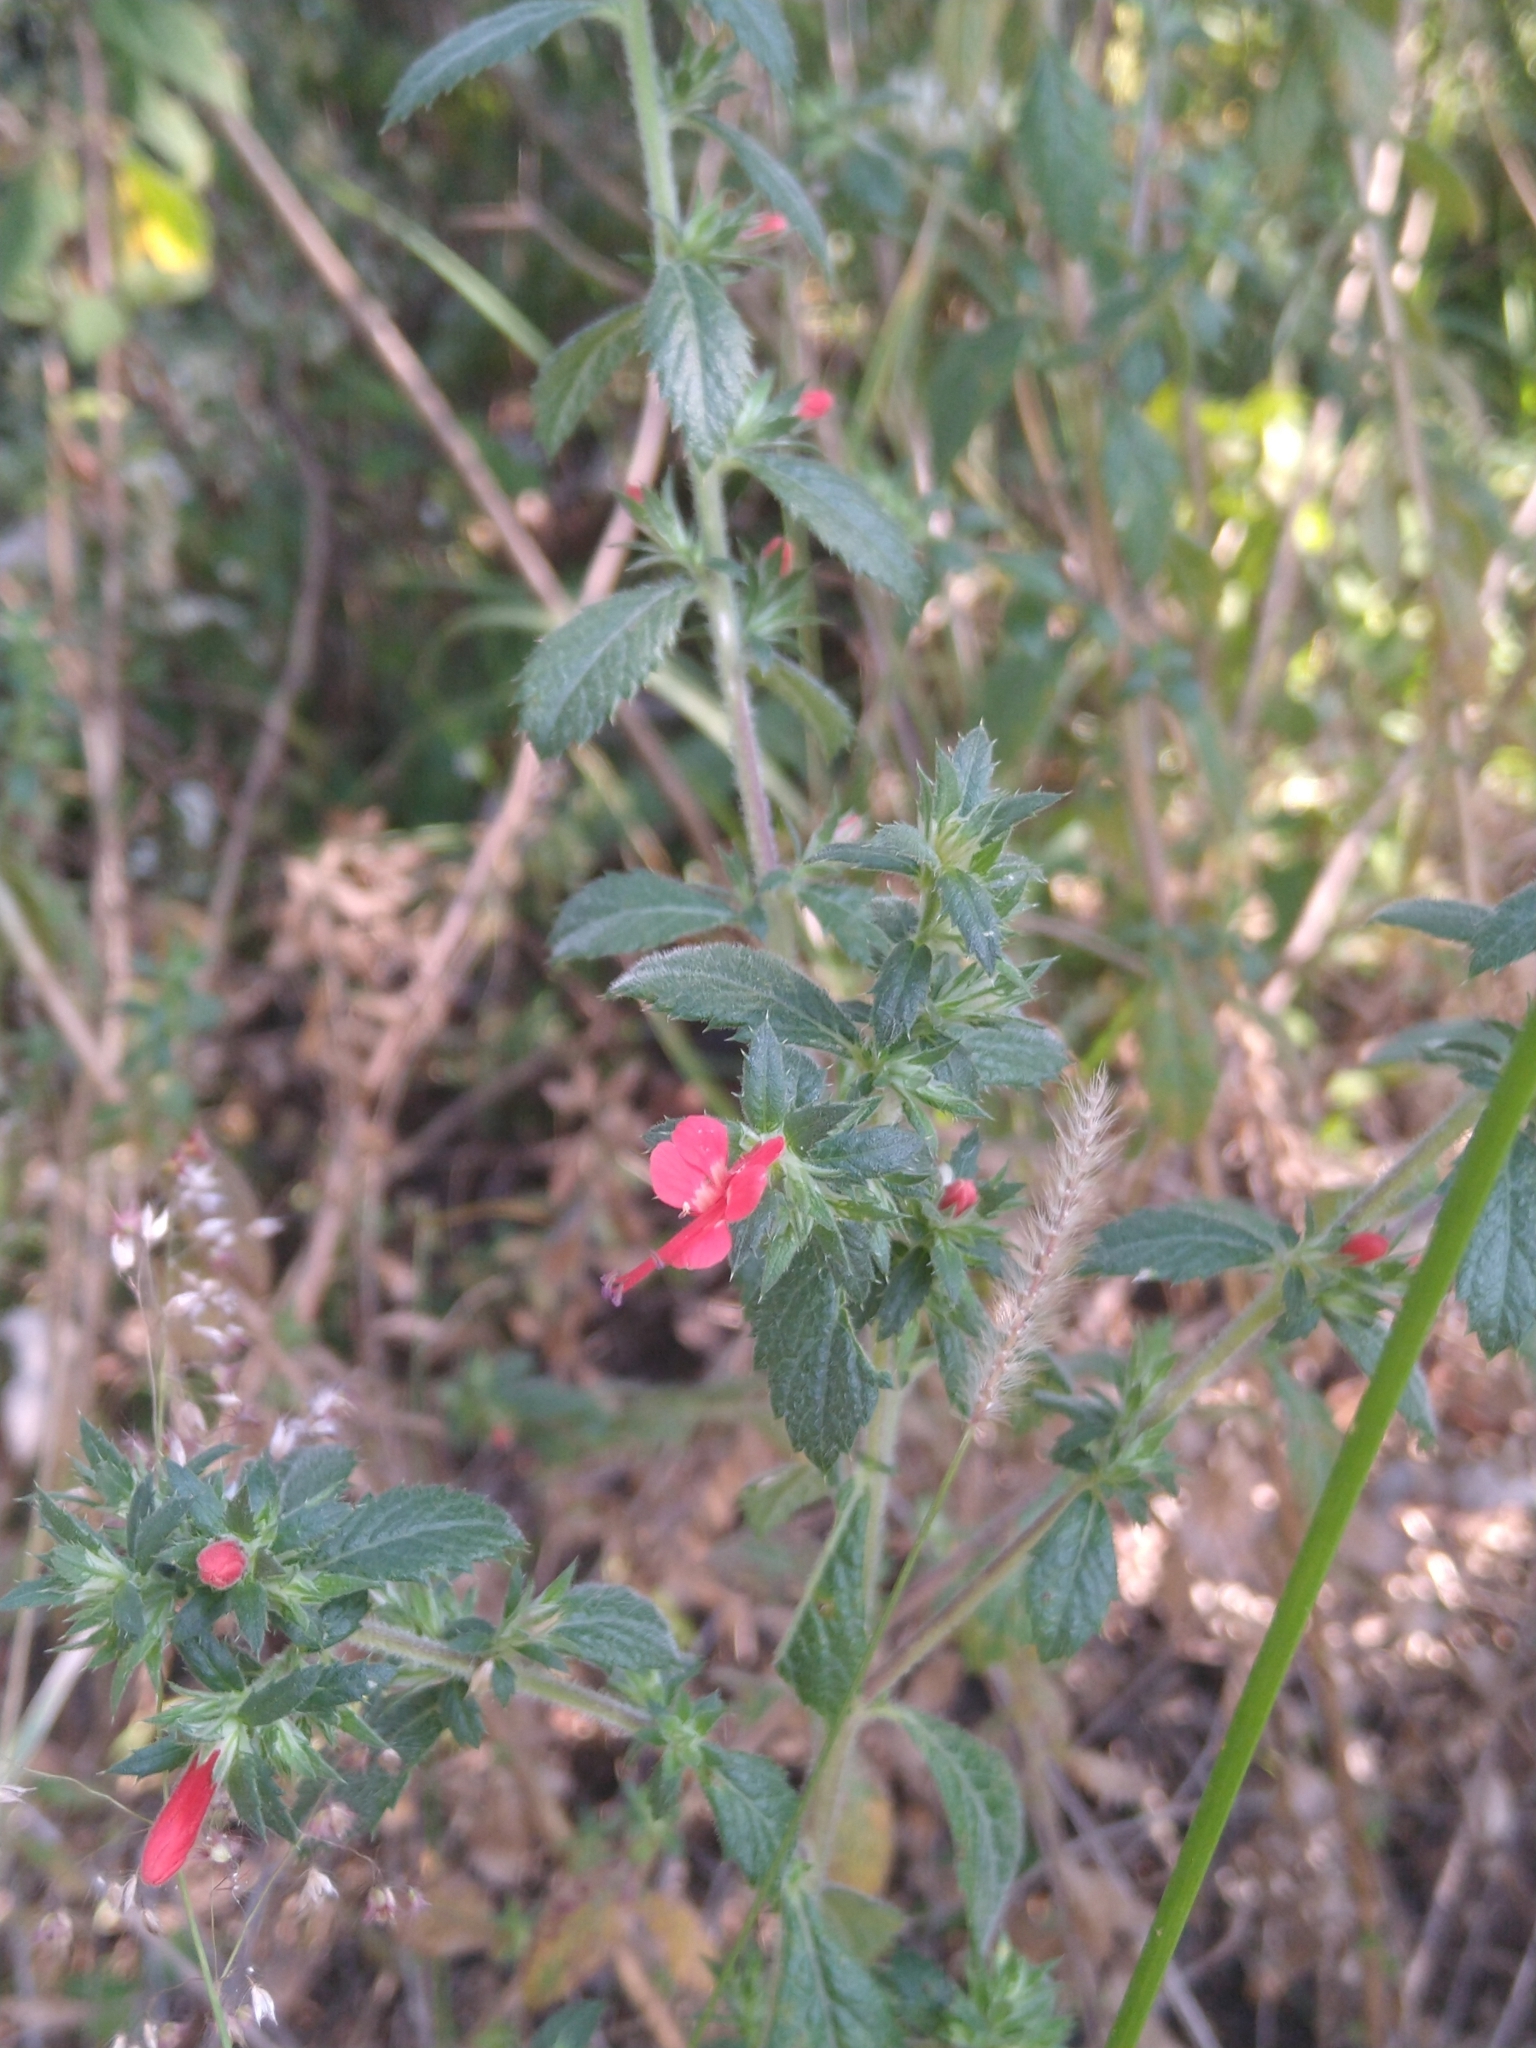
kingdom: Plantae
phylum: Tracheophyta
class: Magnoliopsida
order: Ericales
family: Polemoniaceae
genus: Loeselia
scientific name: Loeselia mexicana
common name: Mexican false calico
